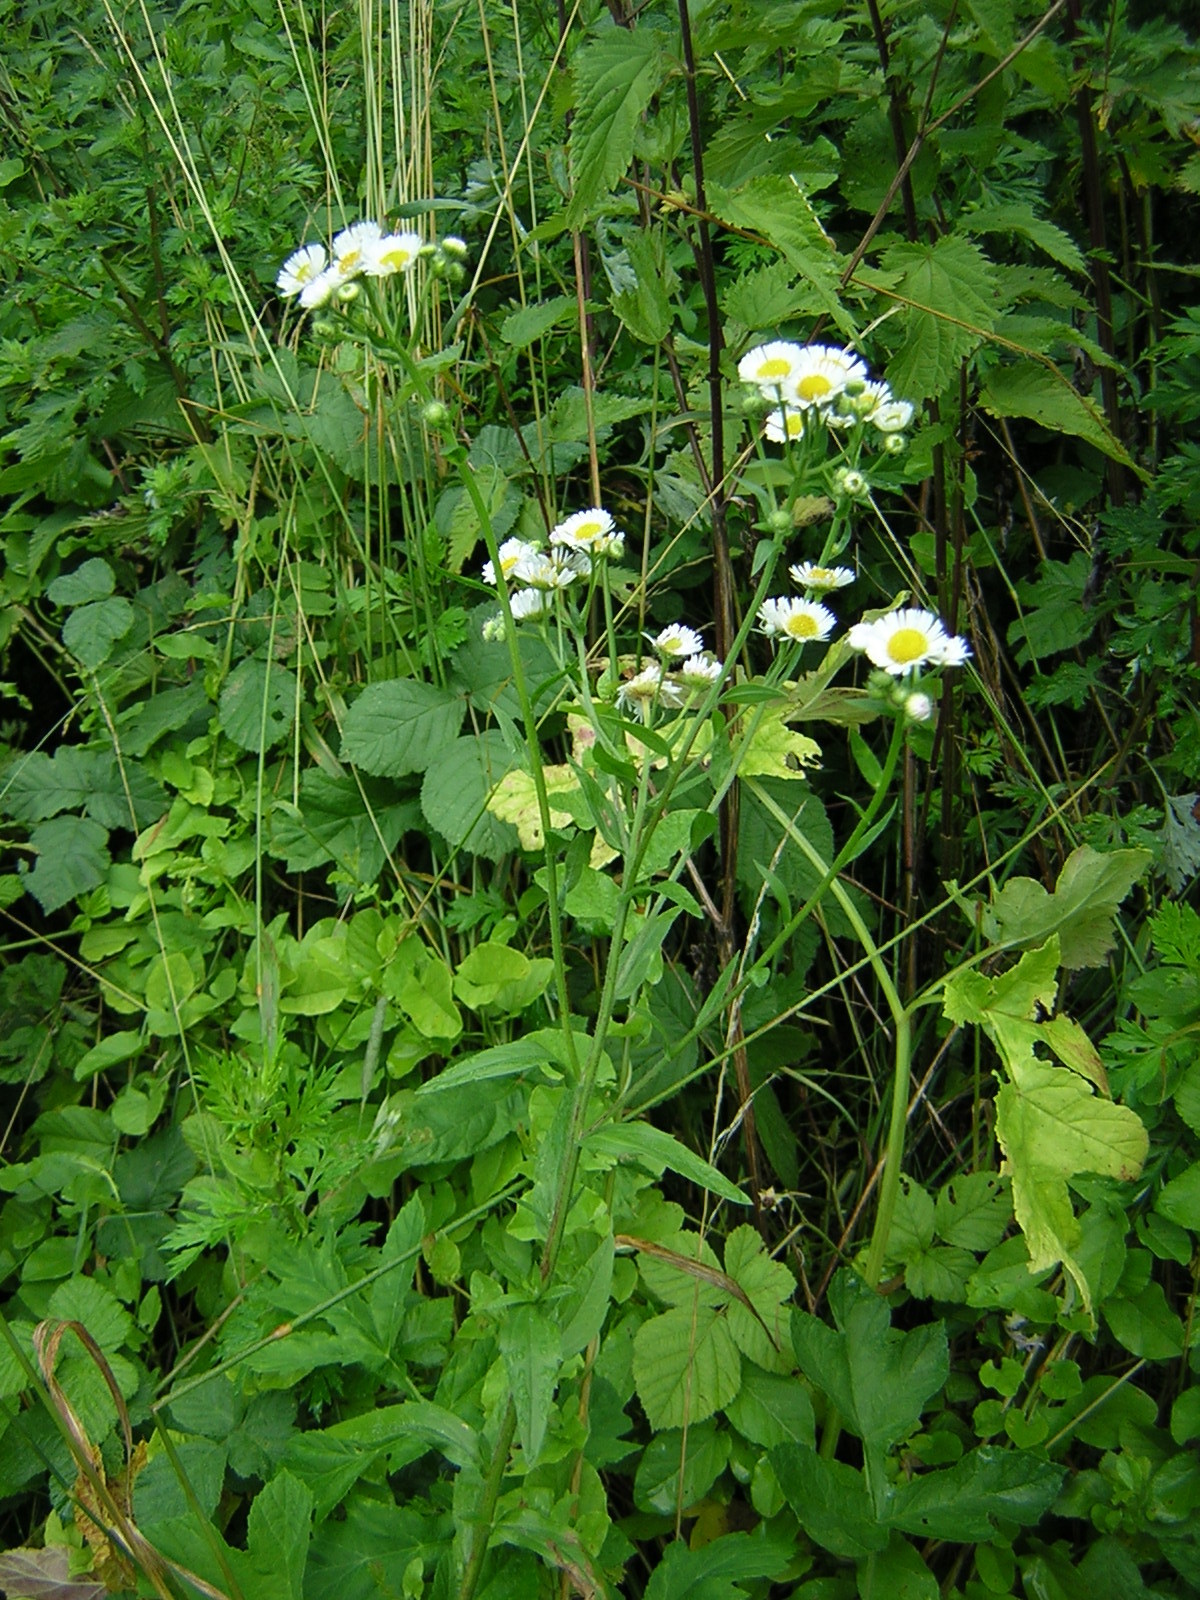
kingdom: Plantae
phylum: Tracheophyta
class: Magnoliopsida
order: Asterales
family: Asteraceae
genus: Erigeron
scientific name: Erigeron annuus
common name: Tall fleabane
